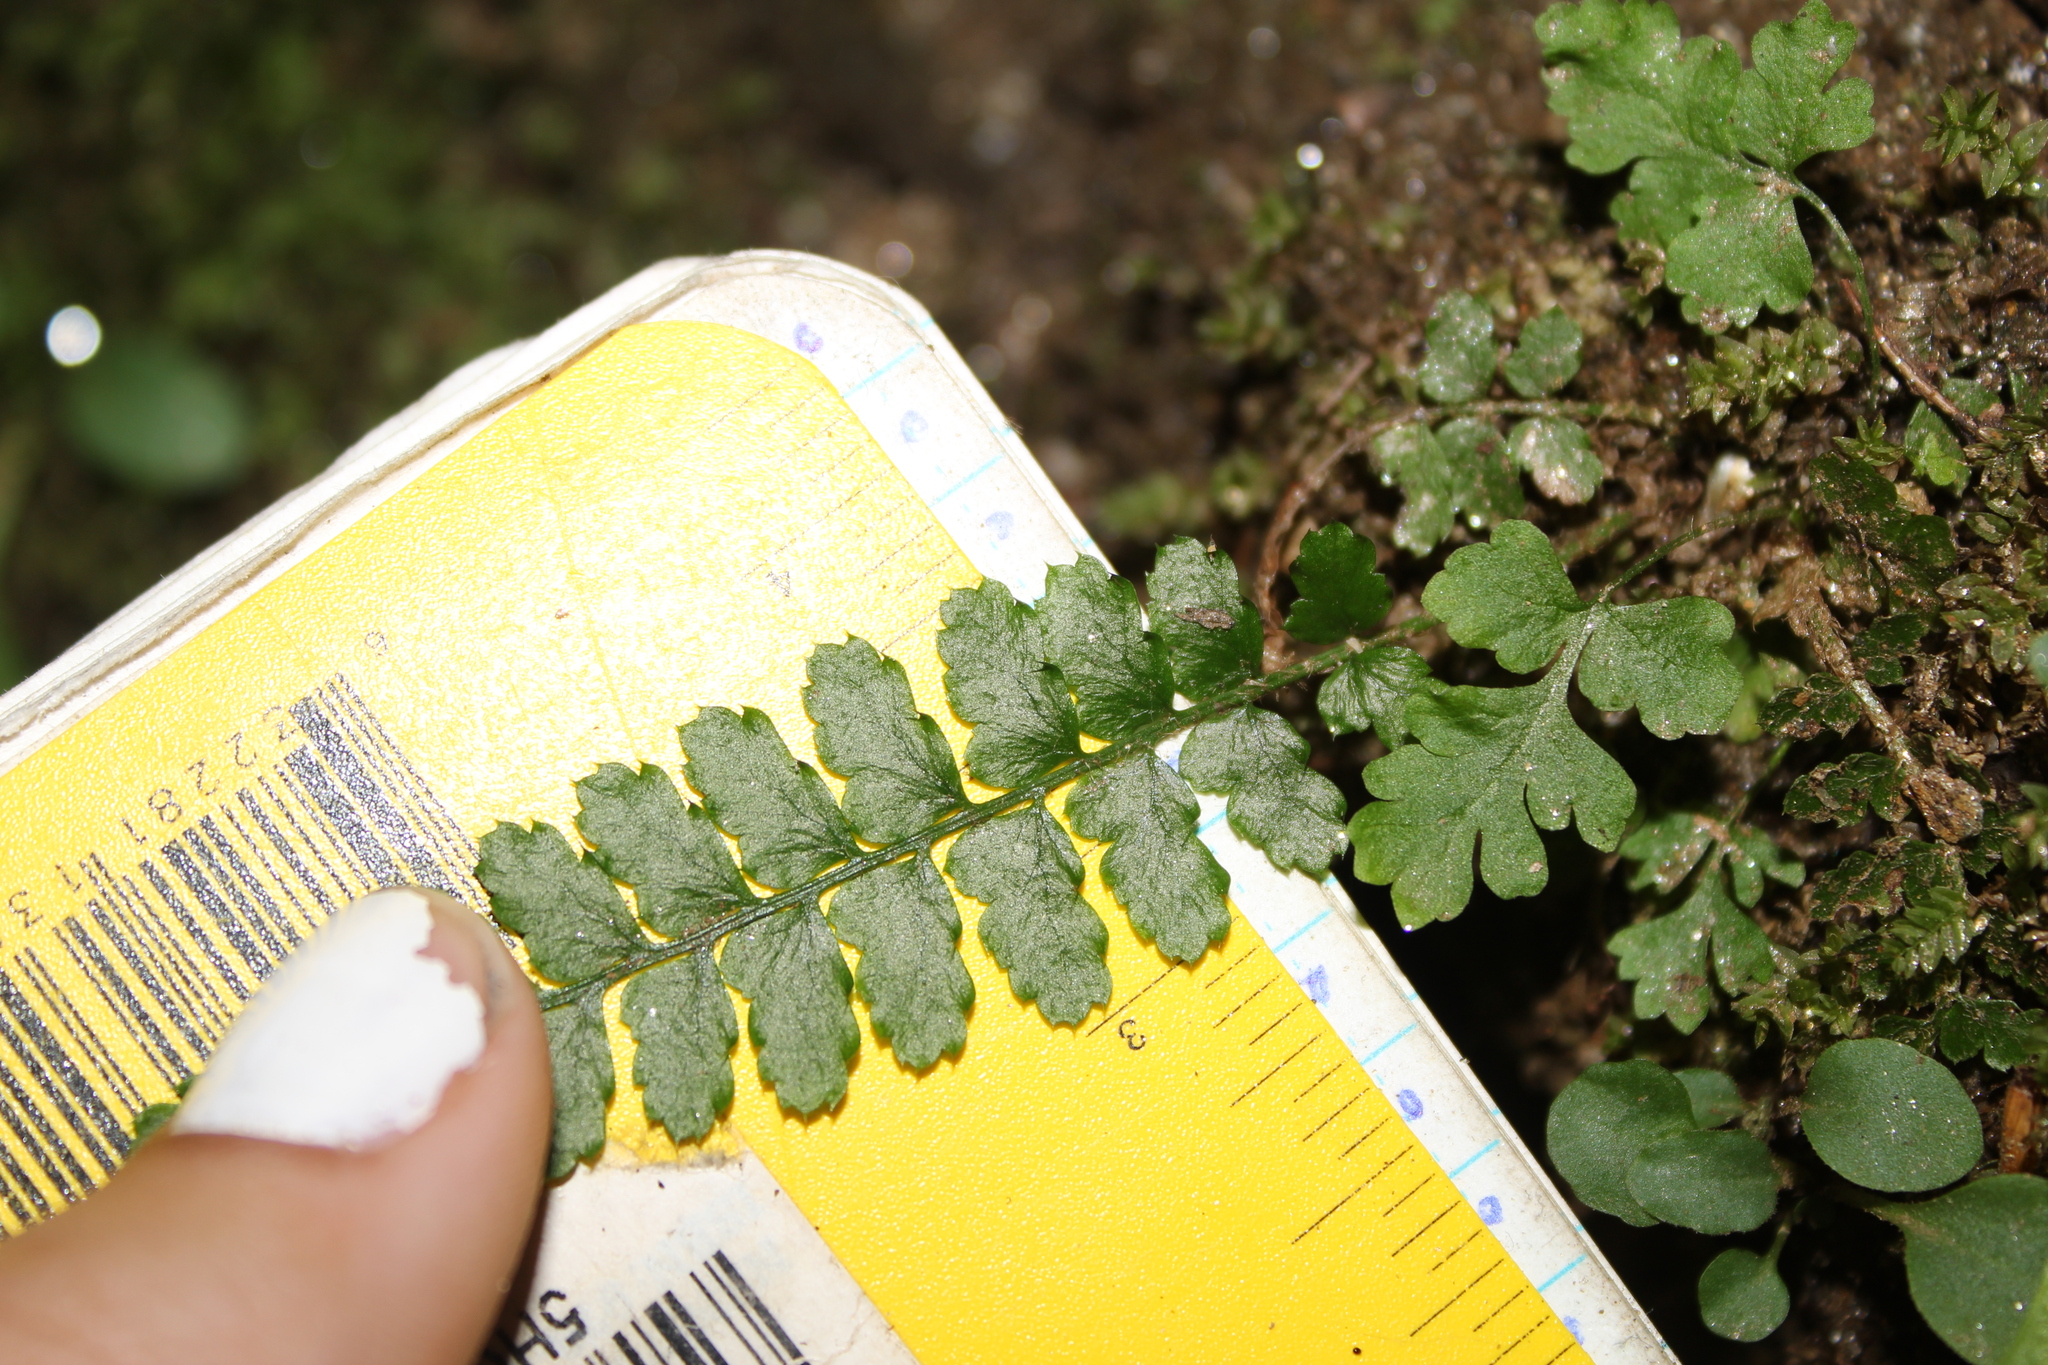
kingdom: Plantae
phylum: Tracheophyta
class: Polypodiopsida
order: Polypodiales
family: Dryopteridaceae
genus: Polystichum
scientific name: Polystichum braunii
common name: Braun's holly fern
